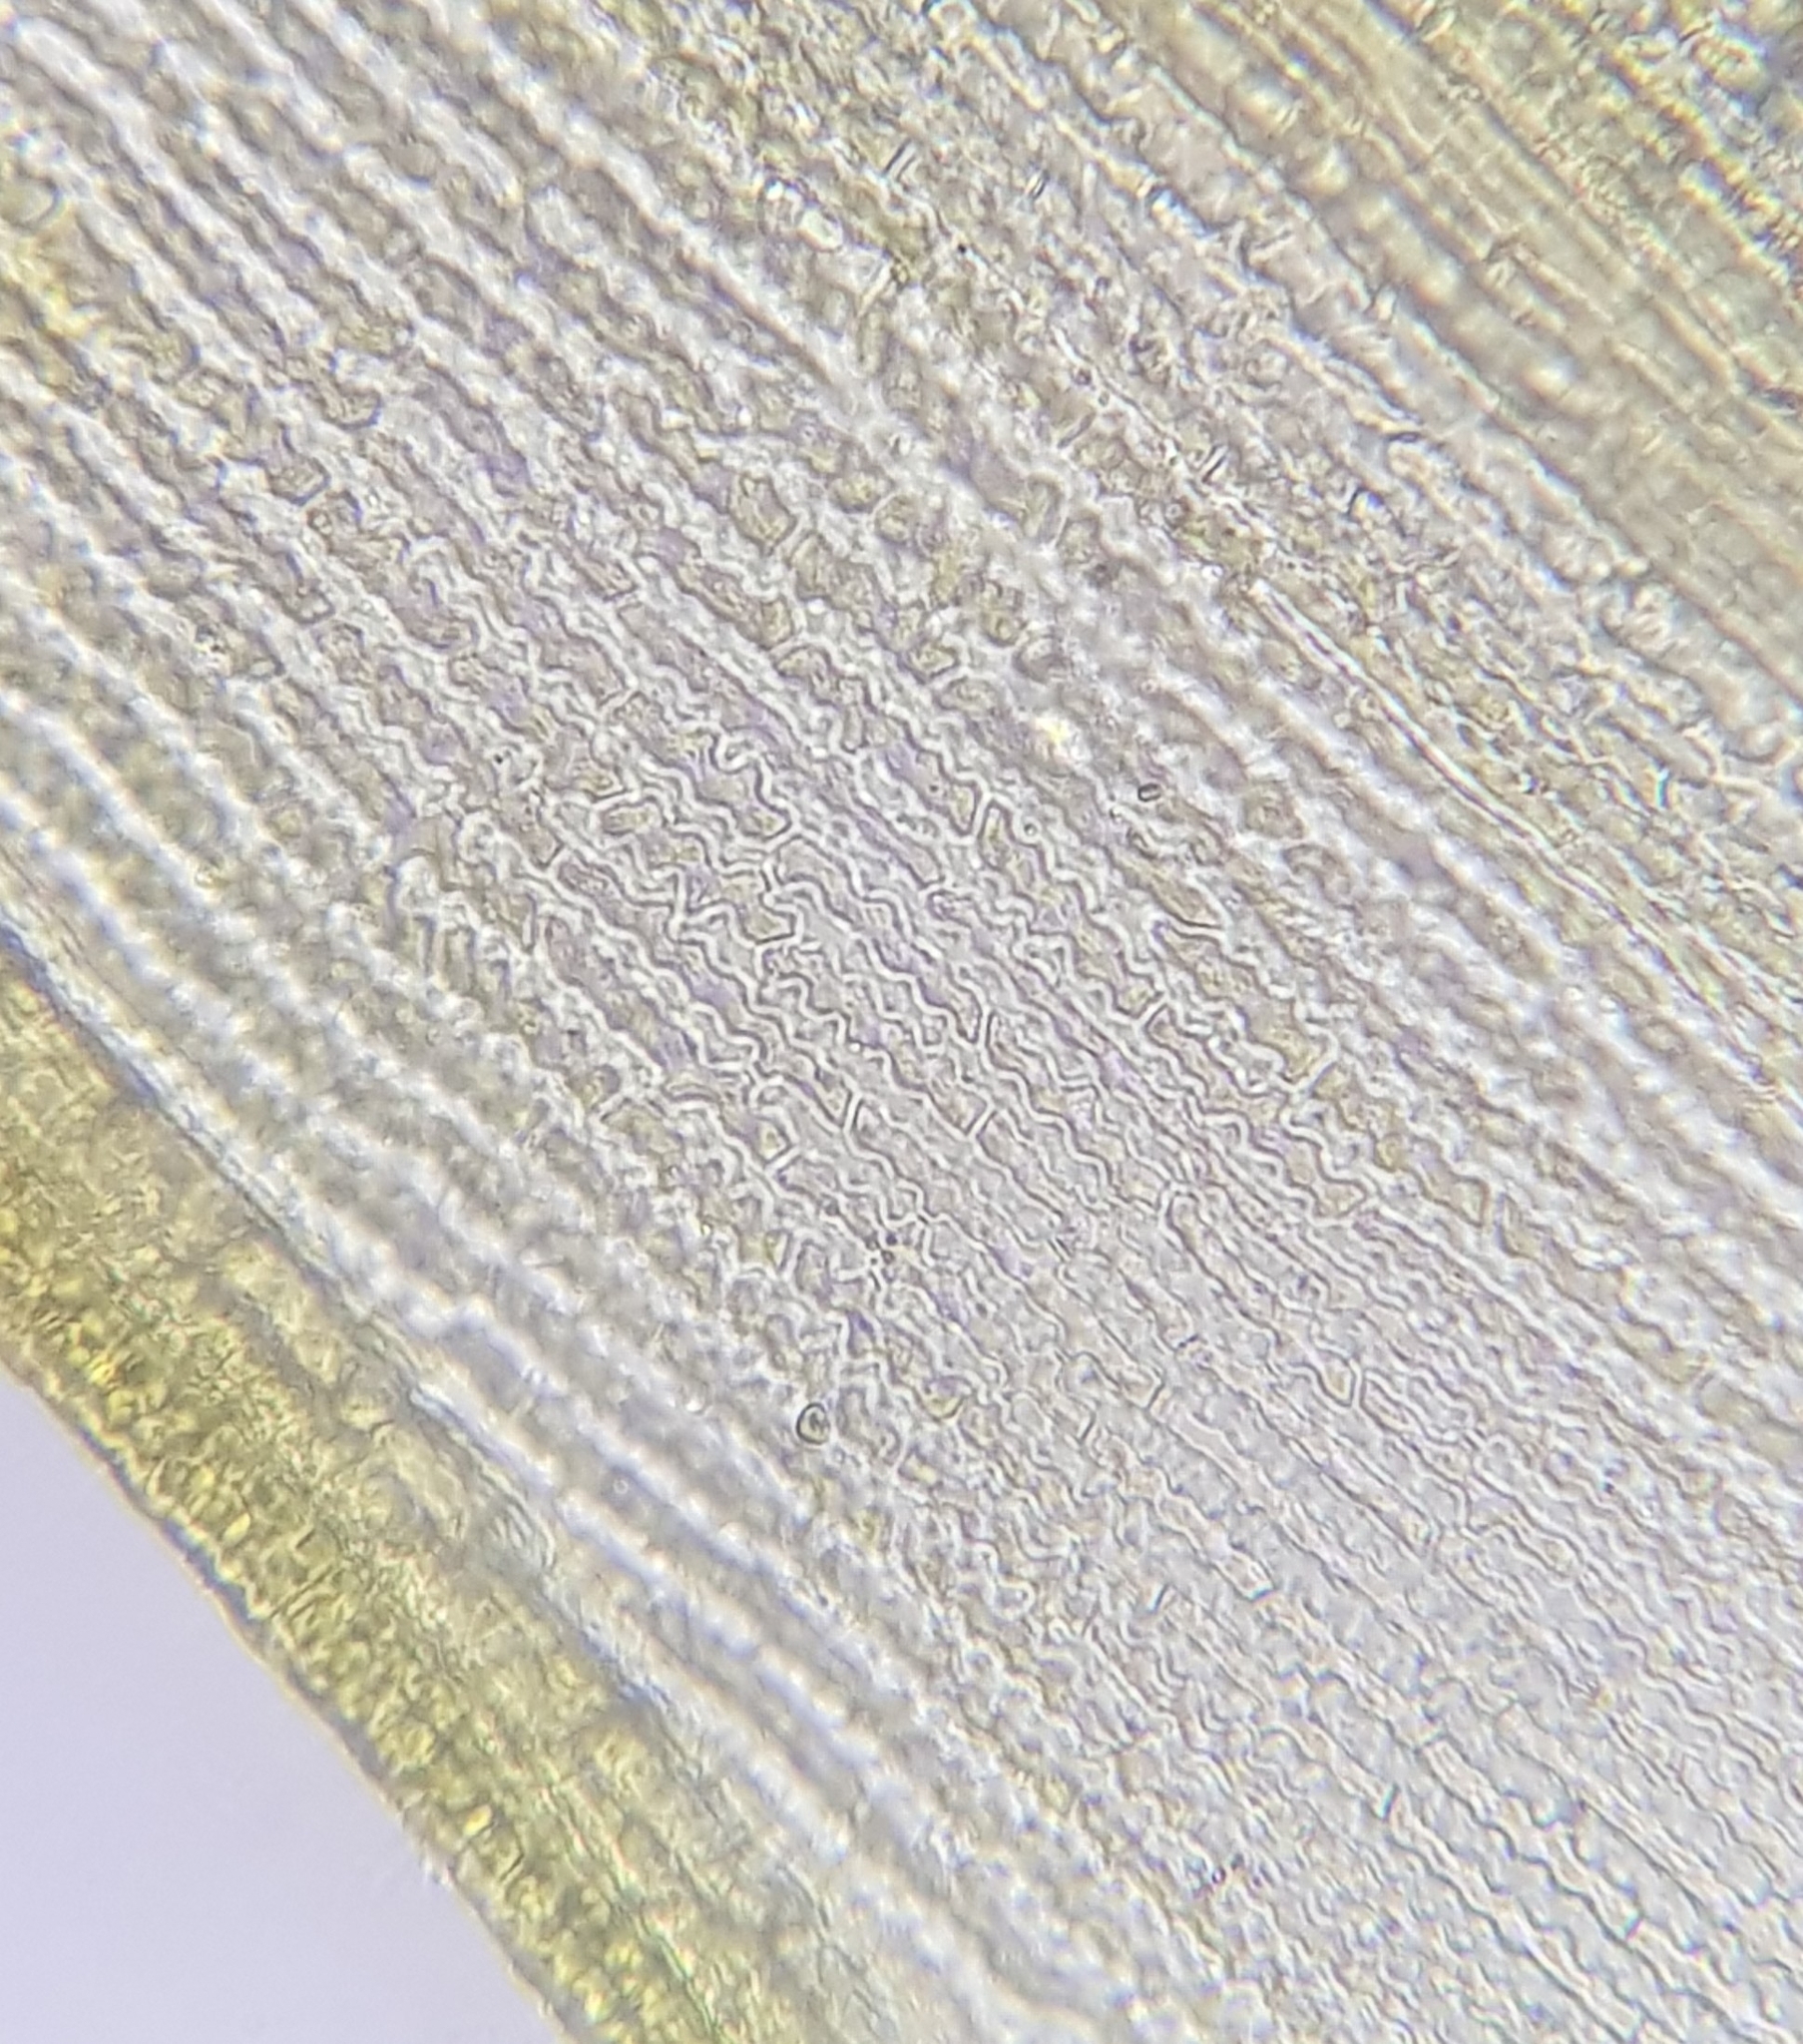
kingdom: Plantae
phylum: Bryophyta
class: Bryopsida
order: Grimmiales
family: Grimmiaceae
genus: Dilutineuron
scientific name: Dilutineuron fasciculare
